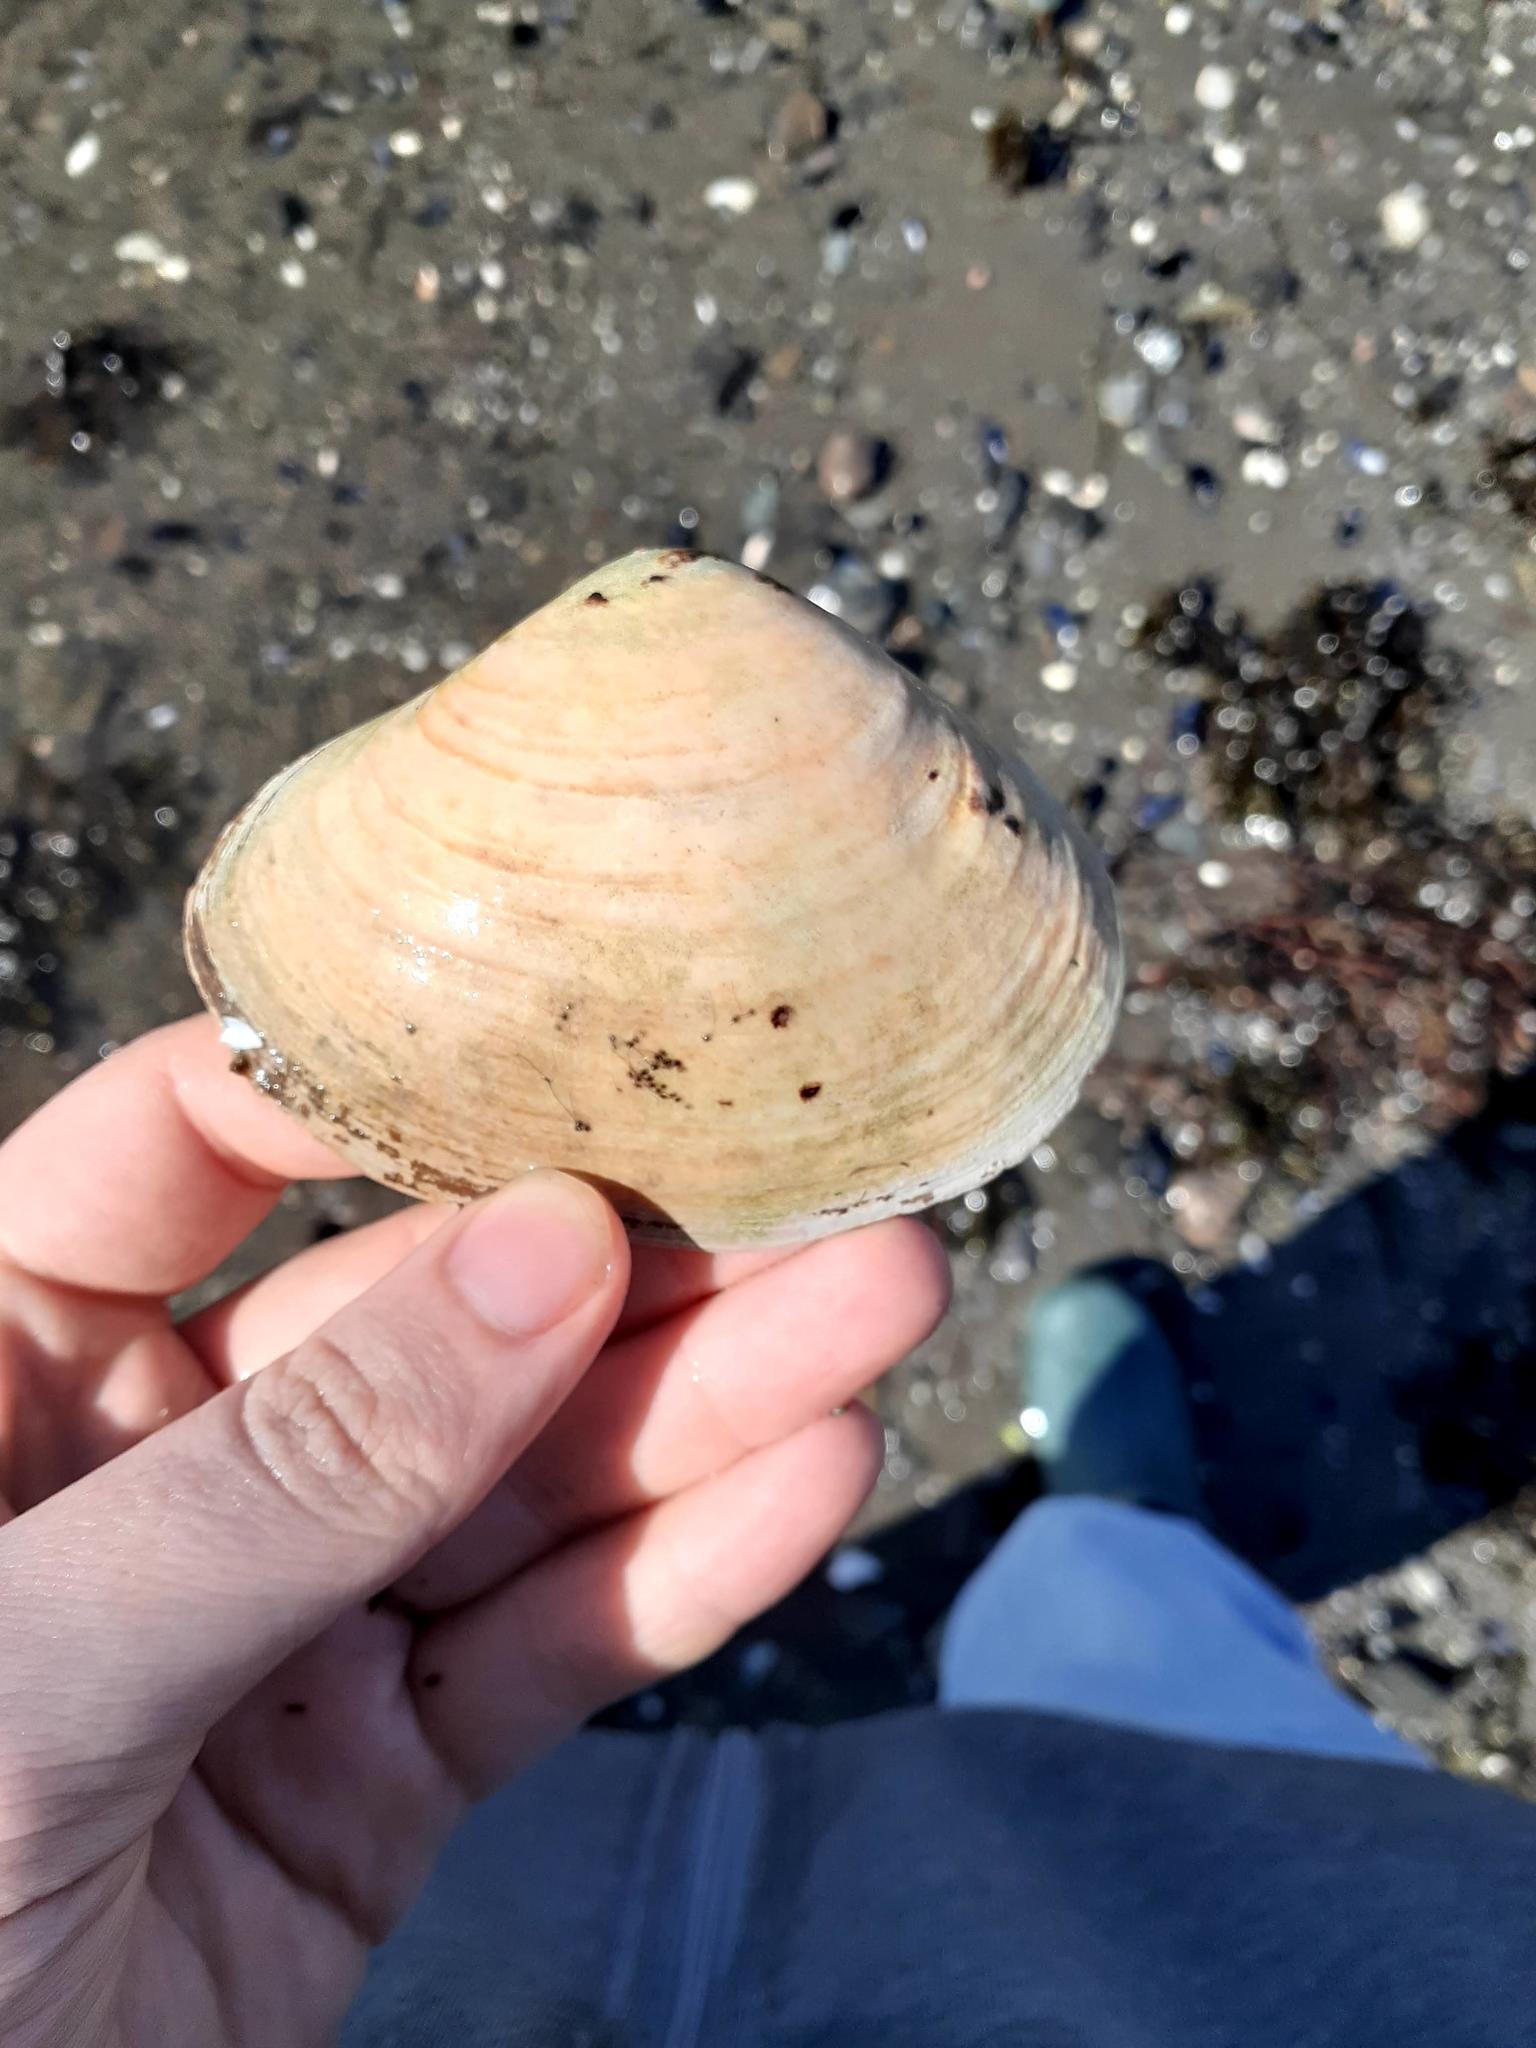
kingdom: Animalia
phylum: Mollusca
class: Bivalvia
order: Venerida
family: Mactridae
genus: Mactromeris
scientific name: Mactromeris polynyma
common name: Arctic surf clam
